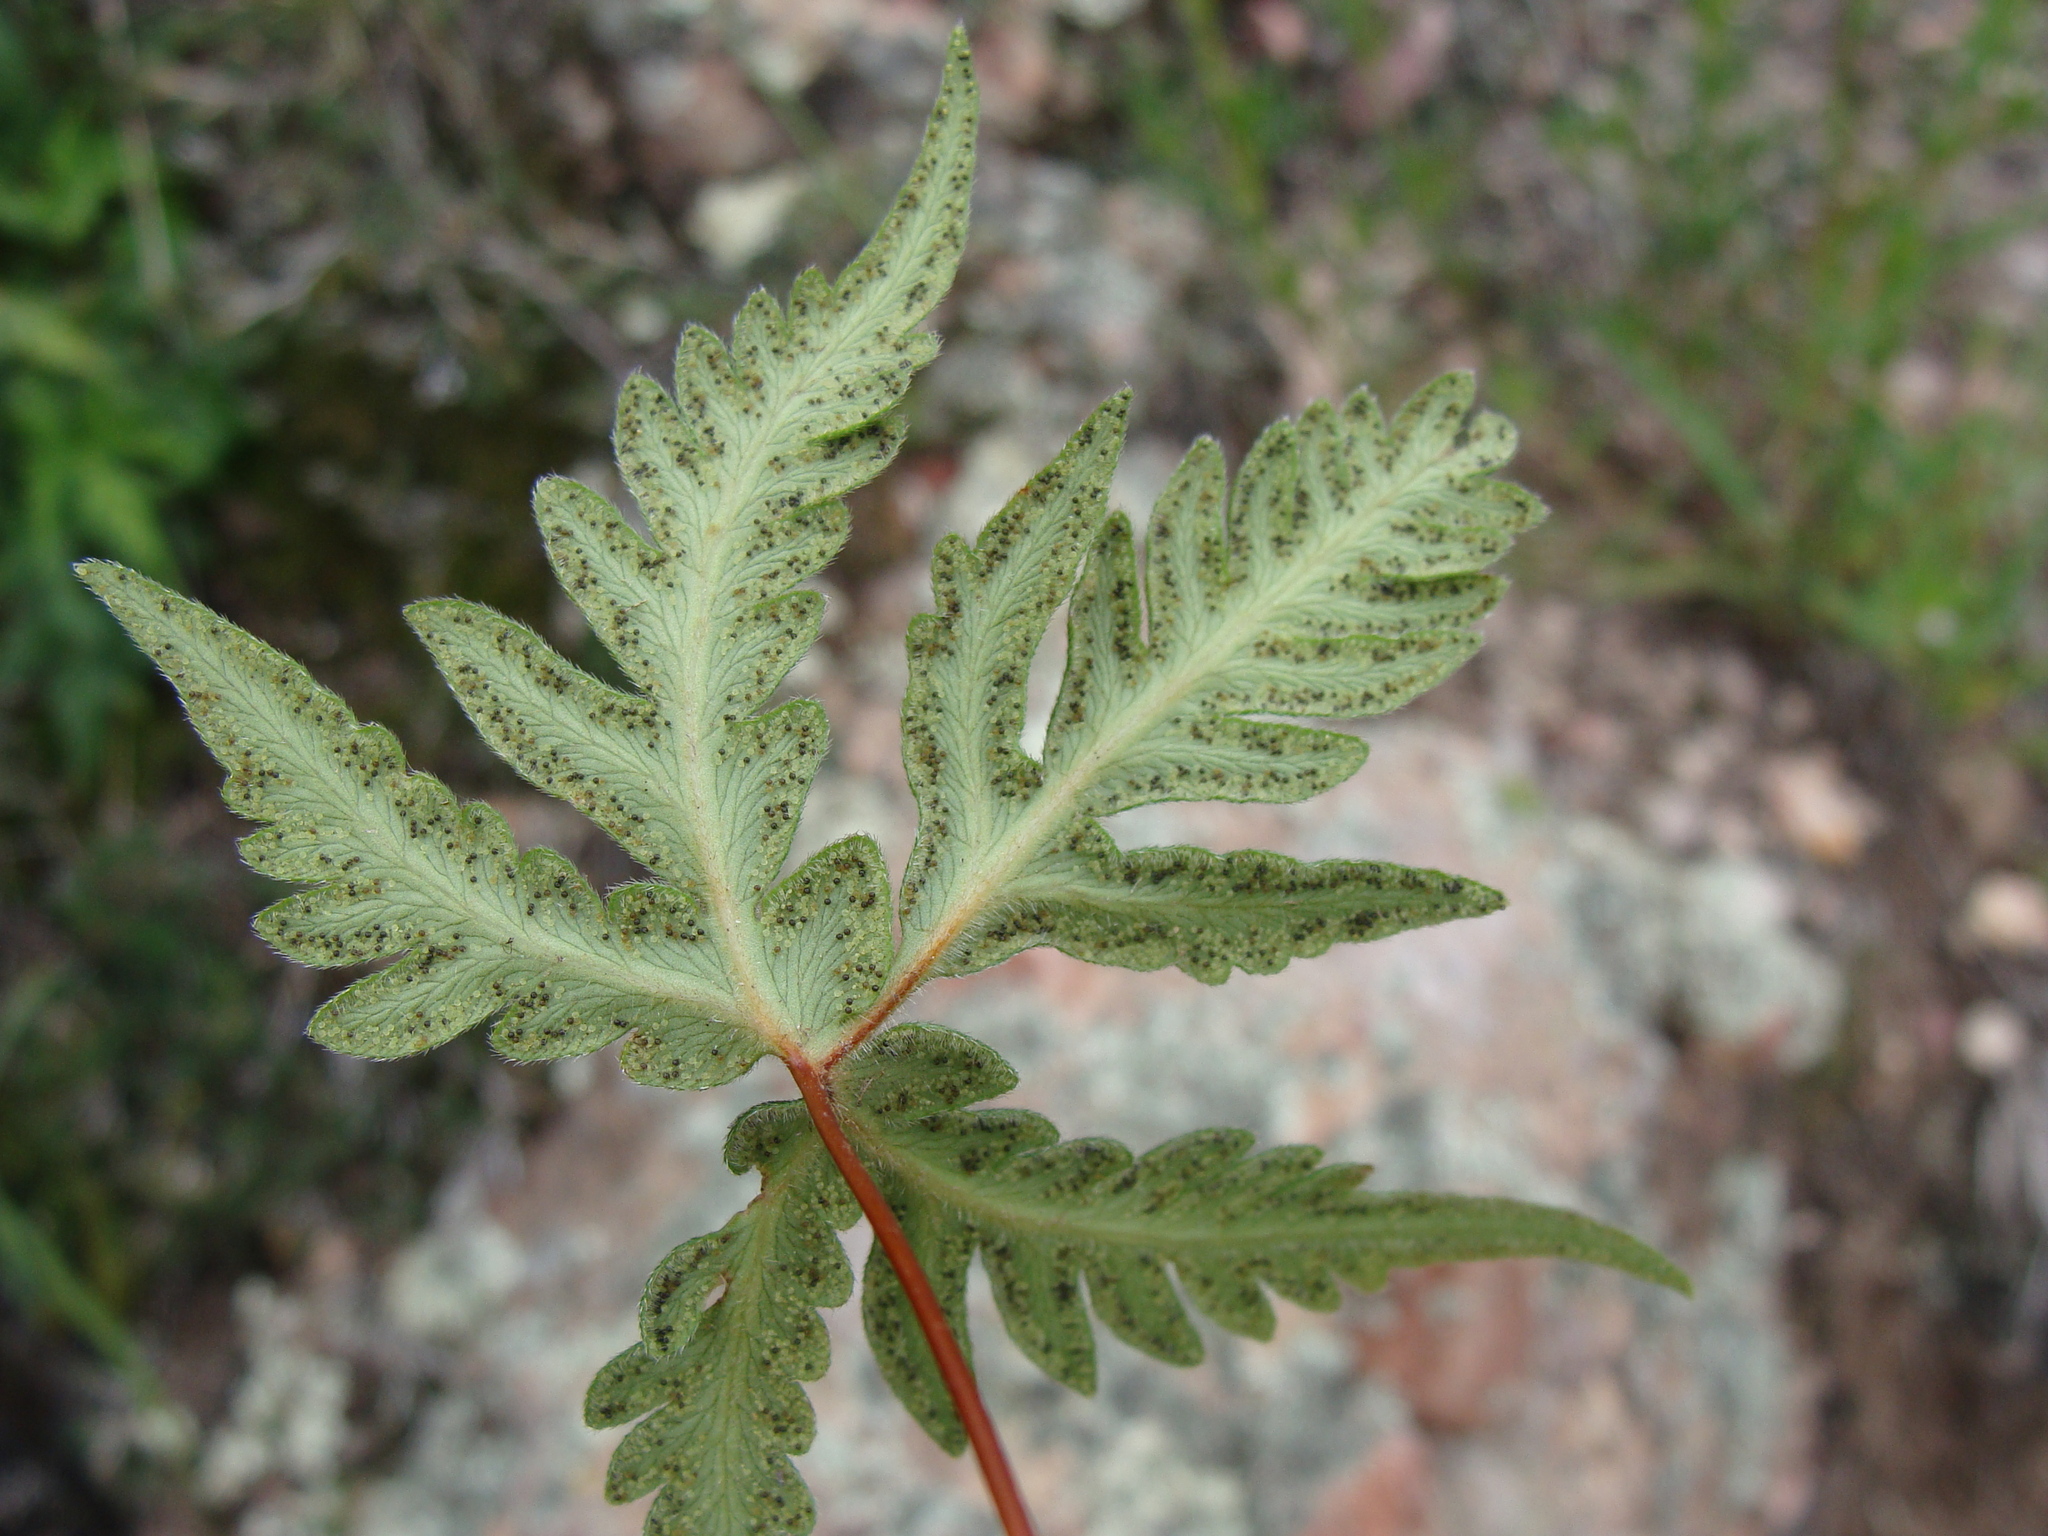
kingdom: Plantae
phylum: Tracheophyta
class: Polypodiopsida
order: Polypodiales
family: Pteridaceae
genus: Bommeria
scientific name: Bommeria hispida
